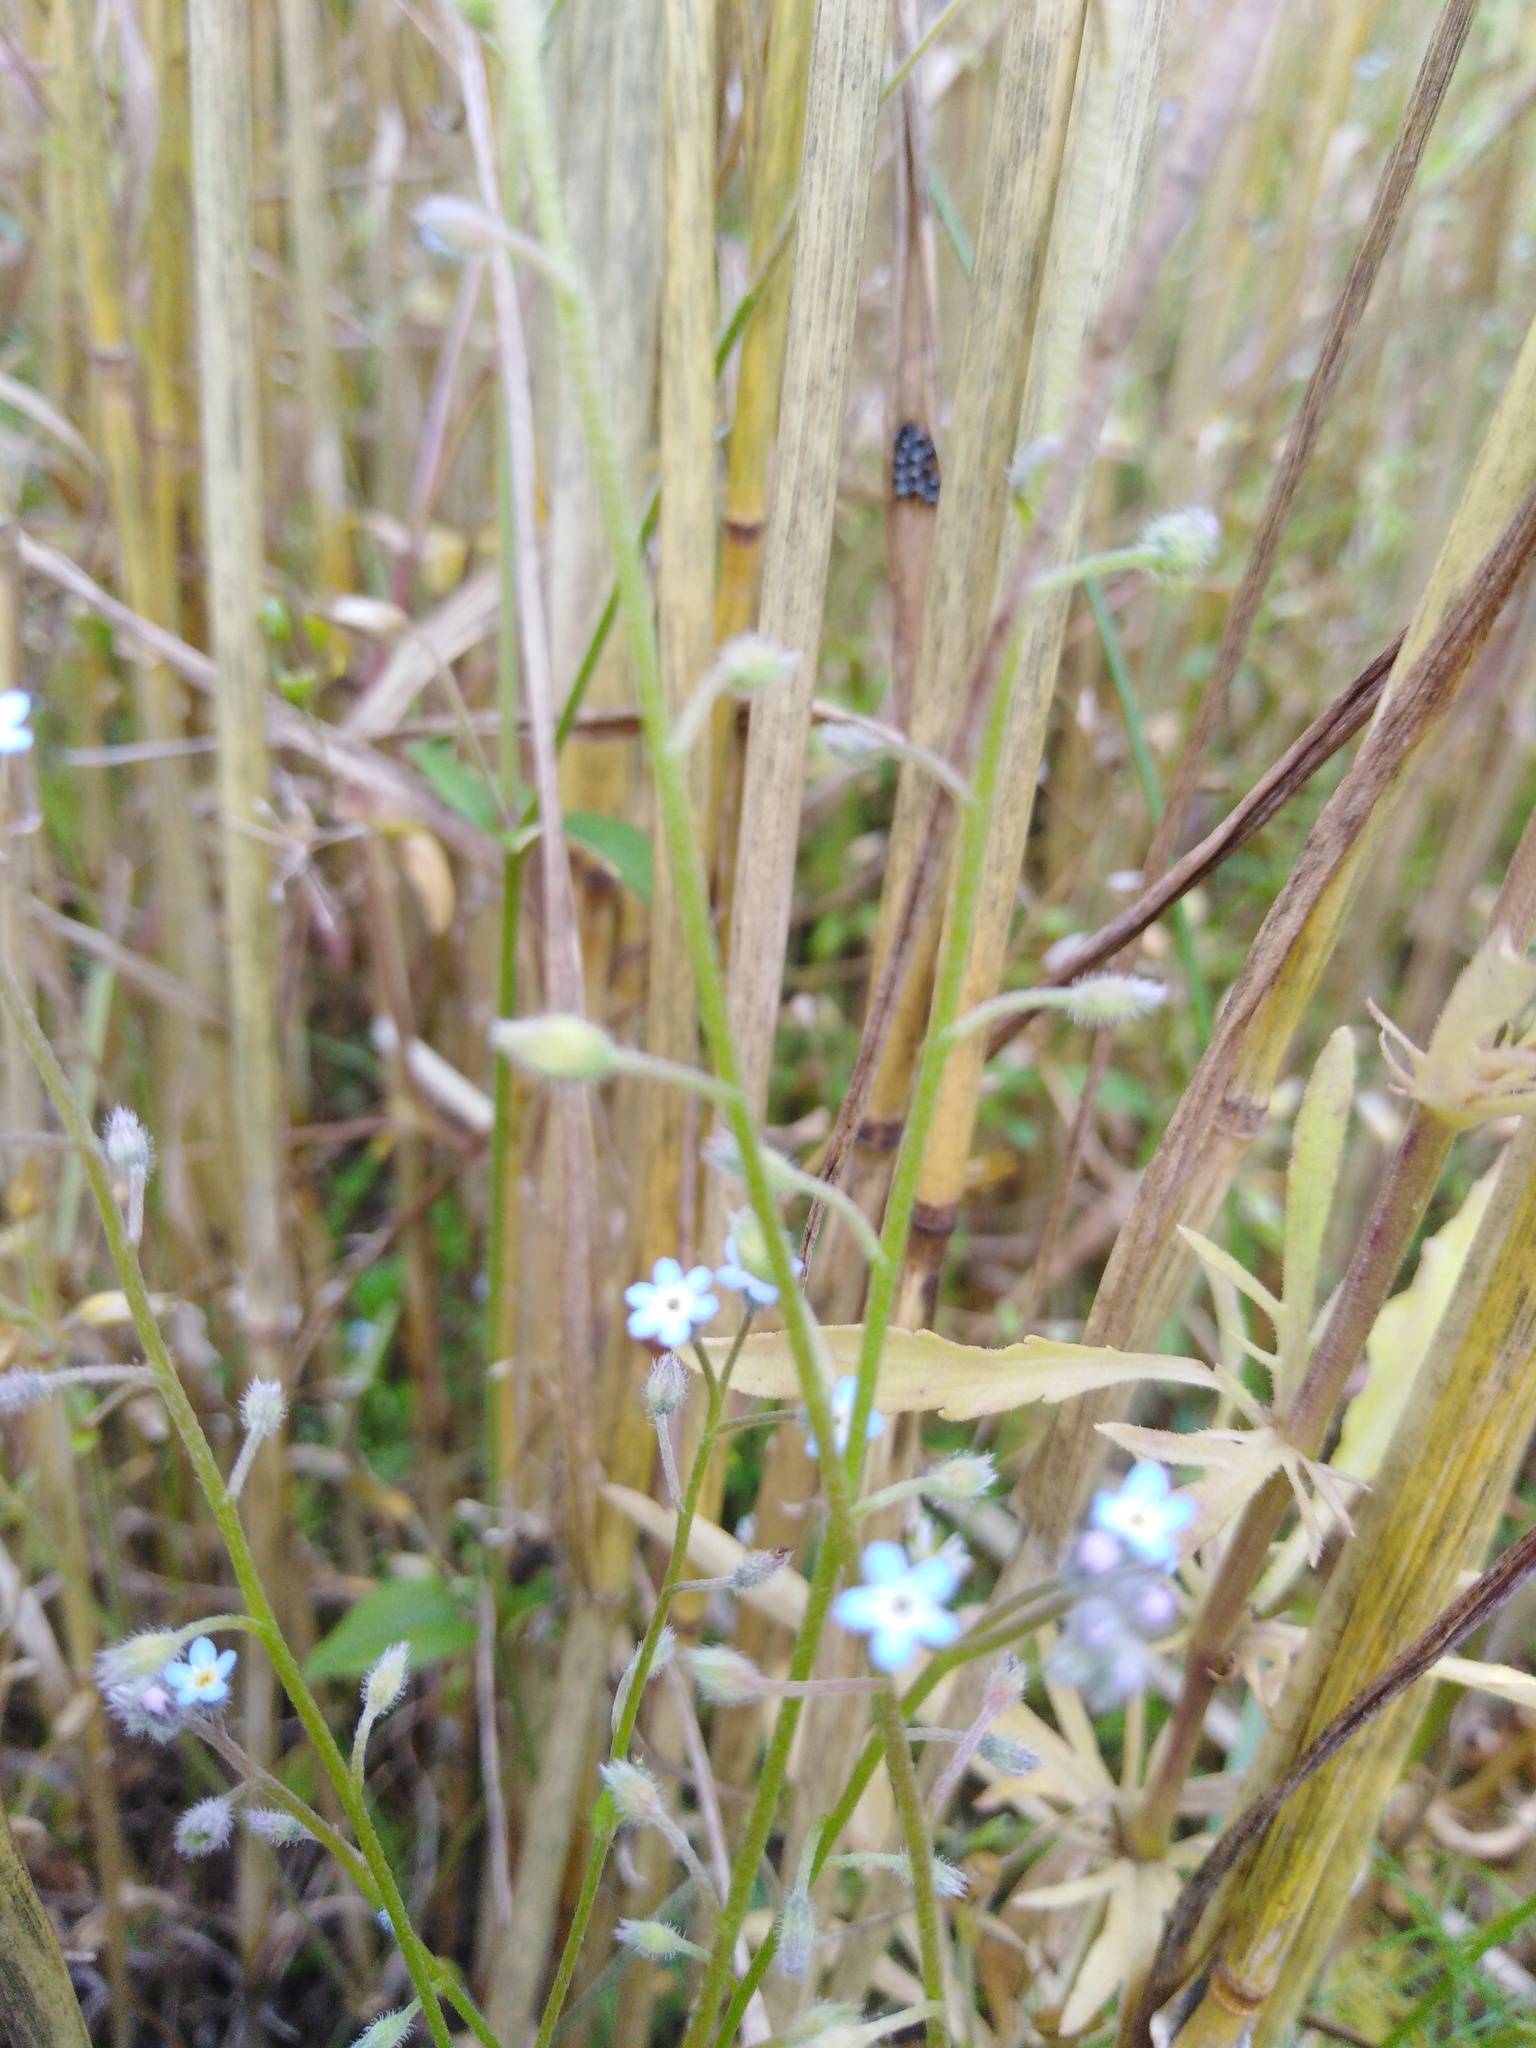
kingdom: Plantae
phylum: Tracheophyta
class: Magnoliopsida
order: Boraginales
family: Boraginaceae
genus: Myosotis
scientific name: Myosotis arvensis
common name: Field forget-me-not
